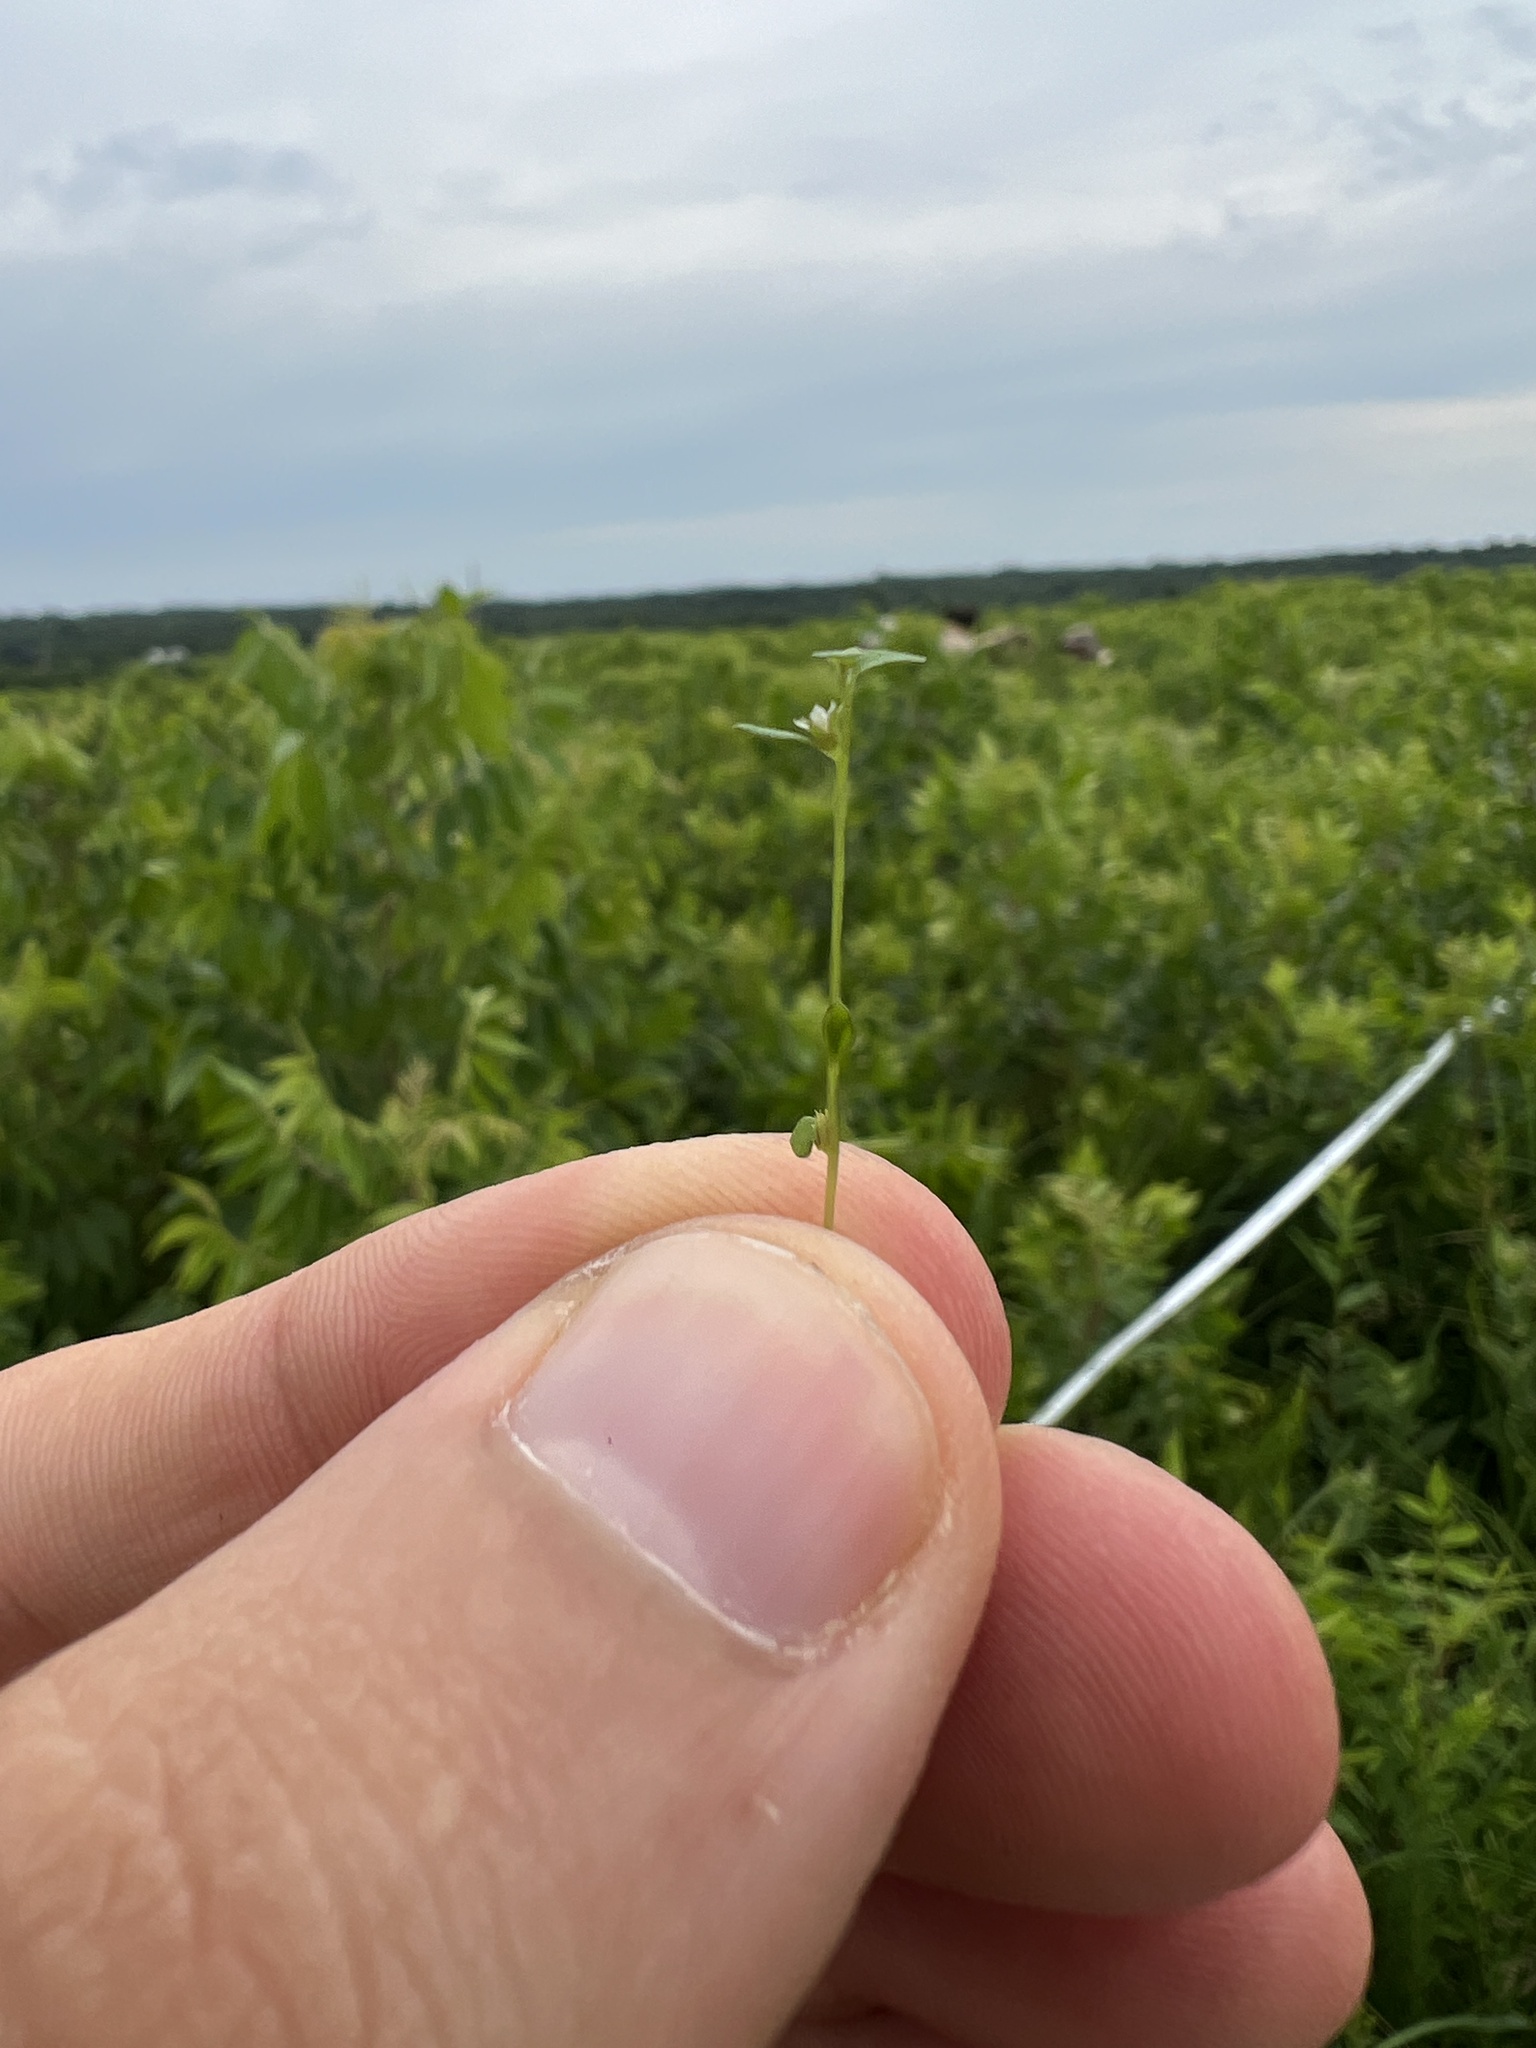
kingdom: Plantae
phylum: Tracheophyta
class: Magnoliopsida
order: Ericales
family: Primulaceae
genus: Lysimachia
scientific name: Lysimachia minima
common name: Chaffweed
